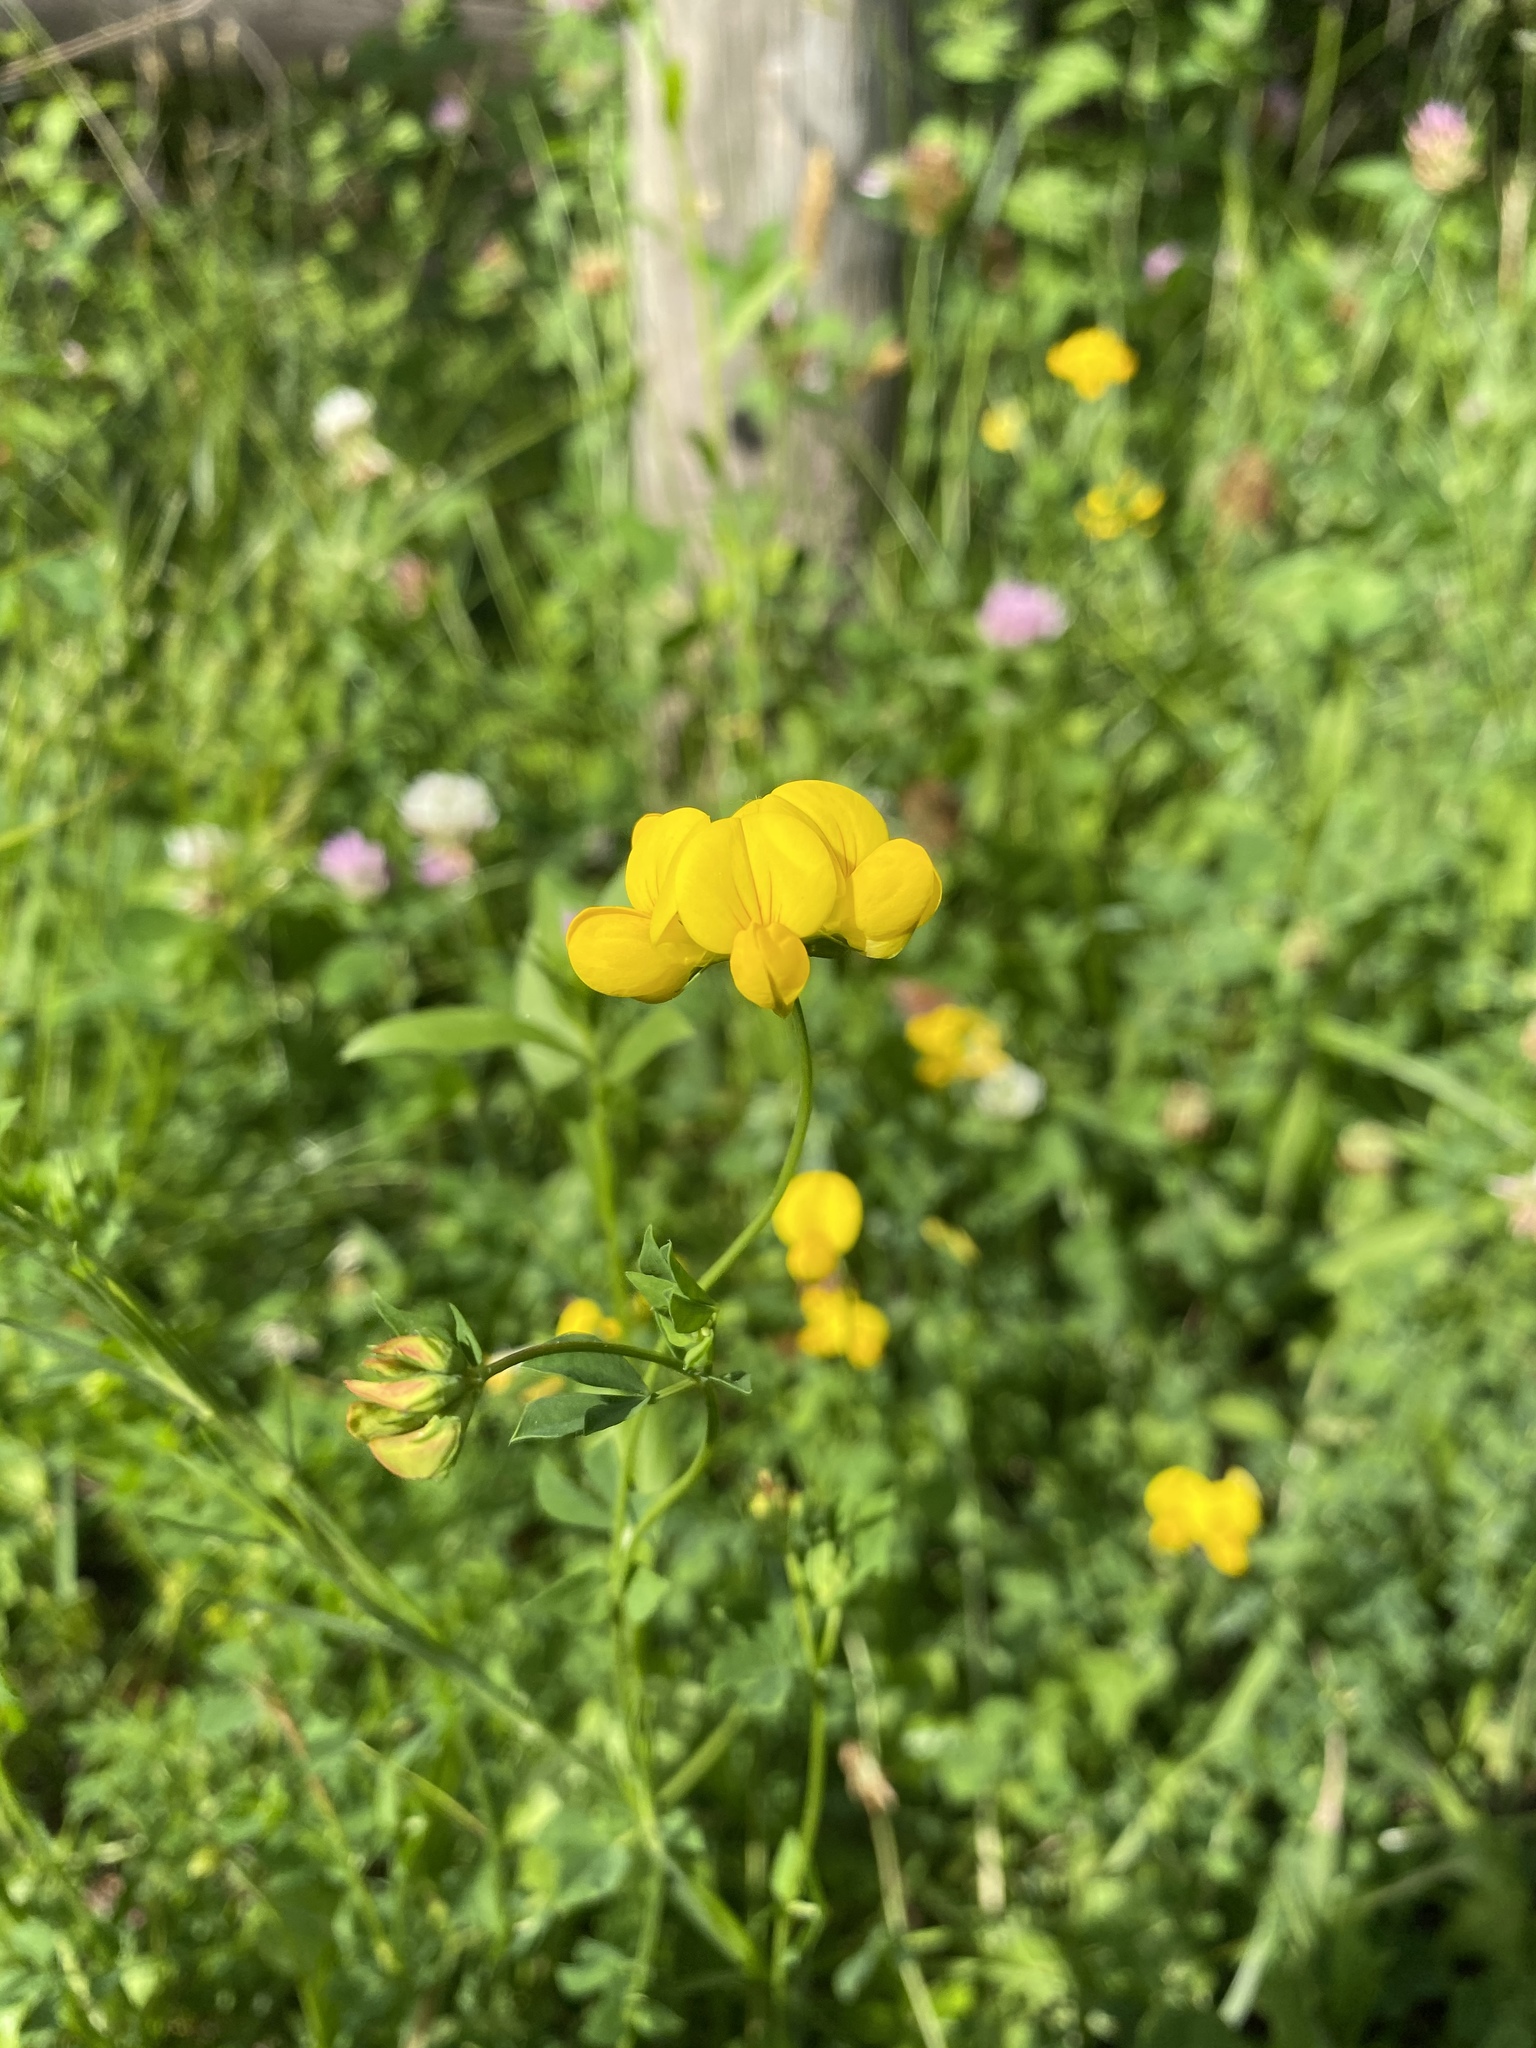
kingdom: Plantae
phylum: Tracheophyta
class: Magnoliopsida
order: Fabales
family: Fabaceae
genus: Lotus
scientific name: Lotus corniculatus
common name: Common bird's-foot-trefoil
